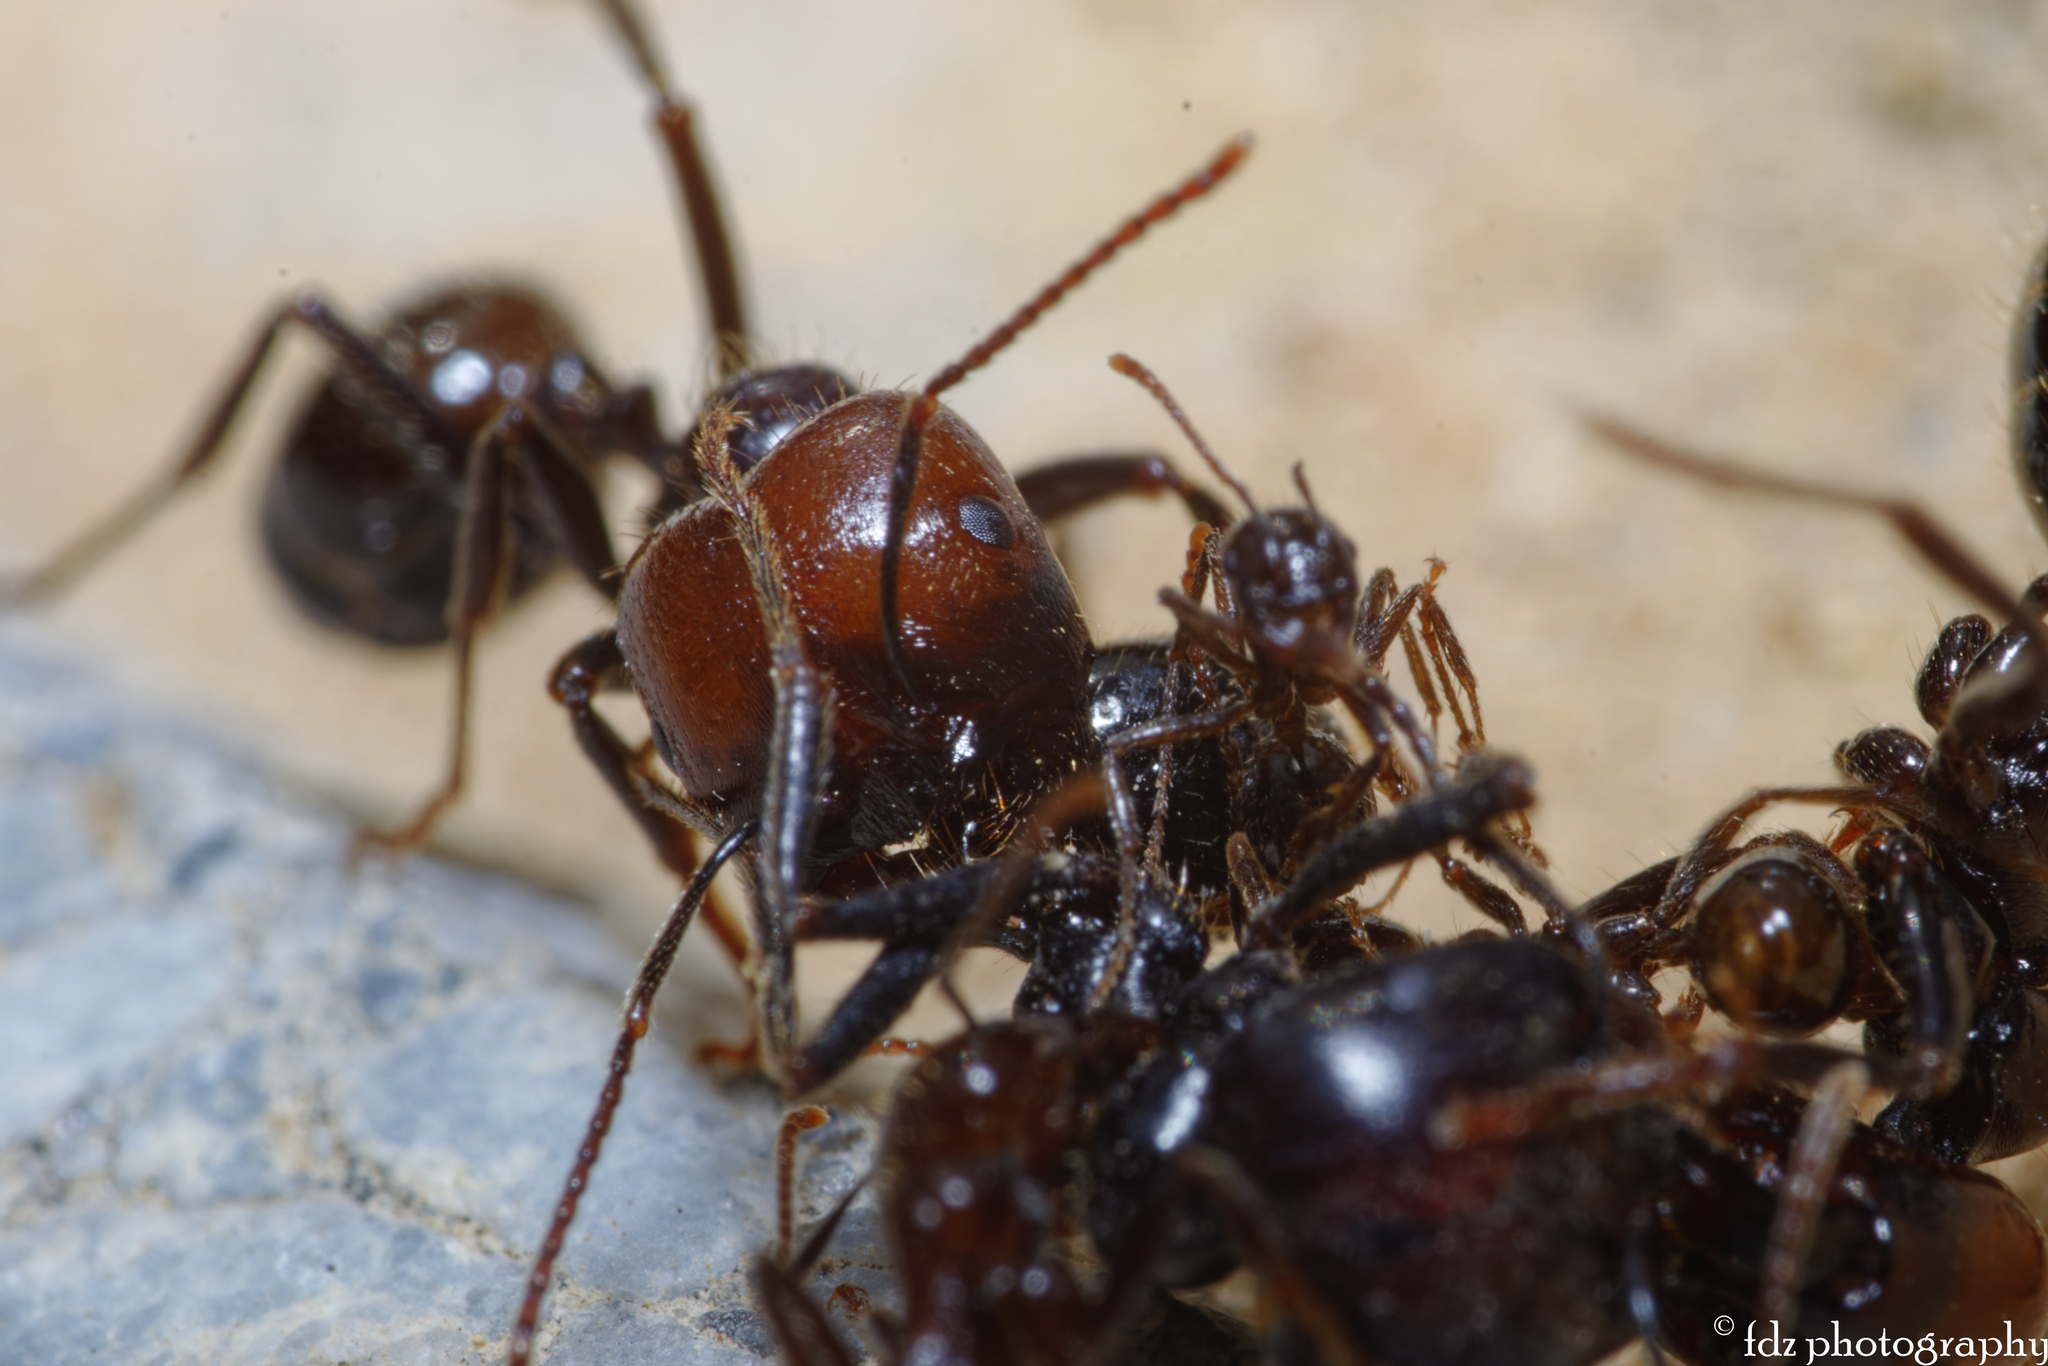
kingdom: Animalia
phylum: Arthropoda
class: Insecta
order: Hymenoptera
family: Formicidae
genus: Messor
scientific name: Messor barbarus
